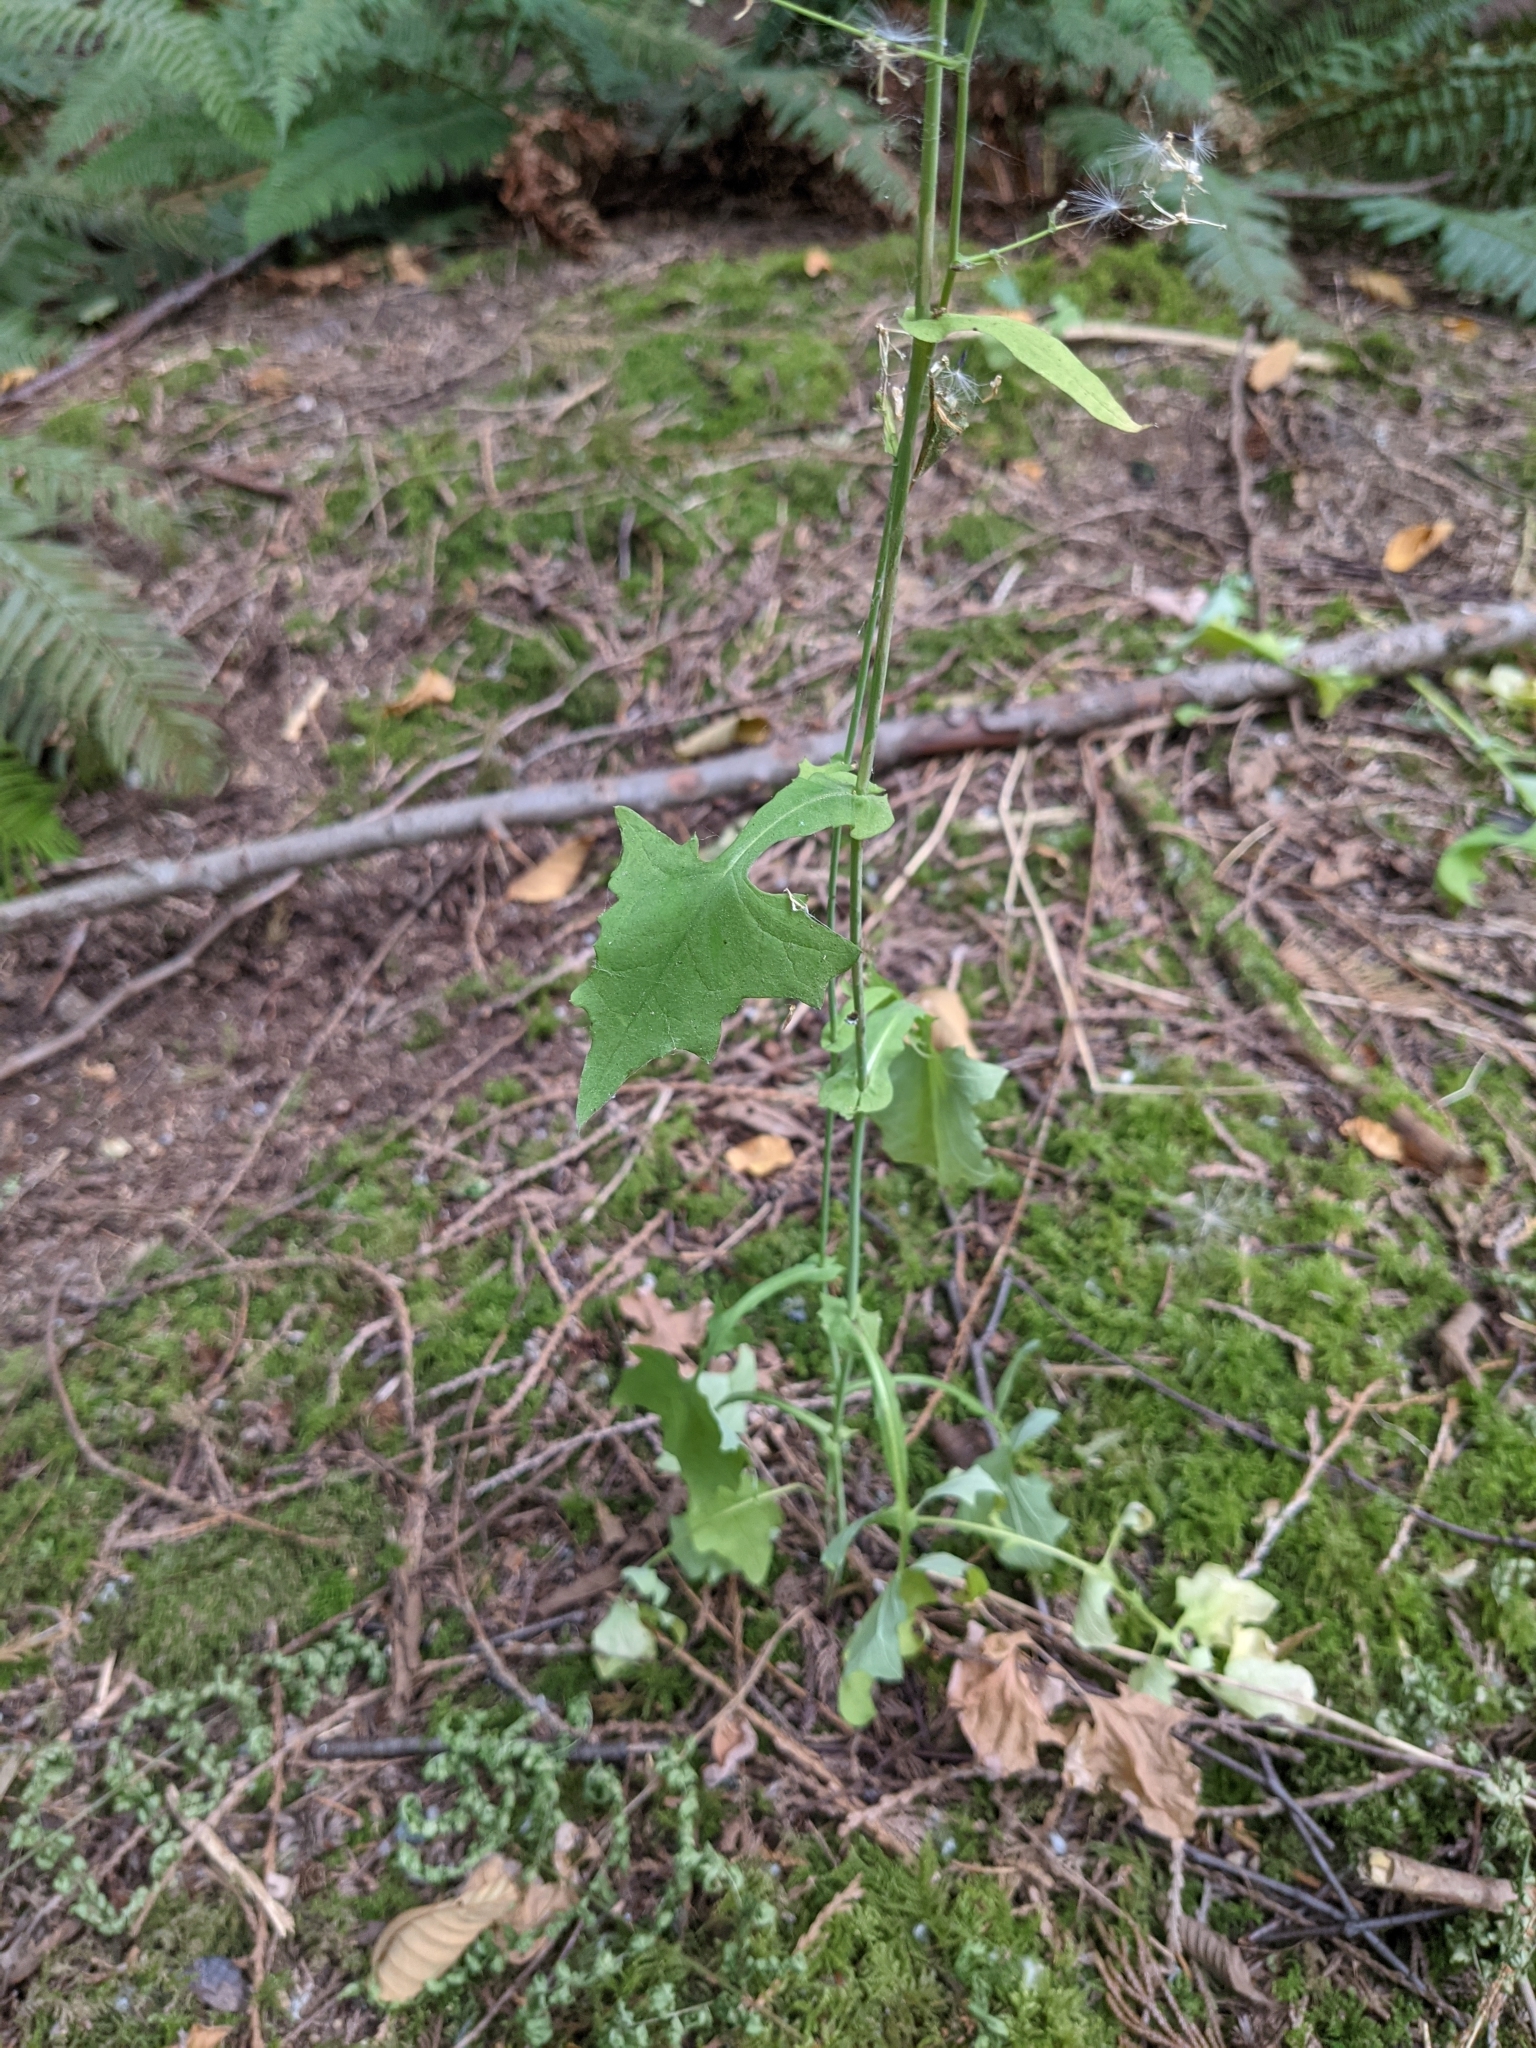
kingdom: Plantae
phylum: Tracheophyta
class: Magnoliopsida
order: Asterales
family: Asteraceae
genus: Mycelis
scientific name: Mycelis muralis
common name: Wall lettuce
